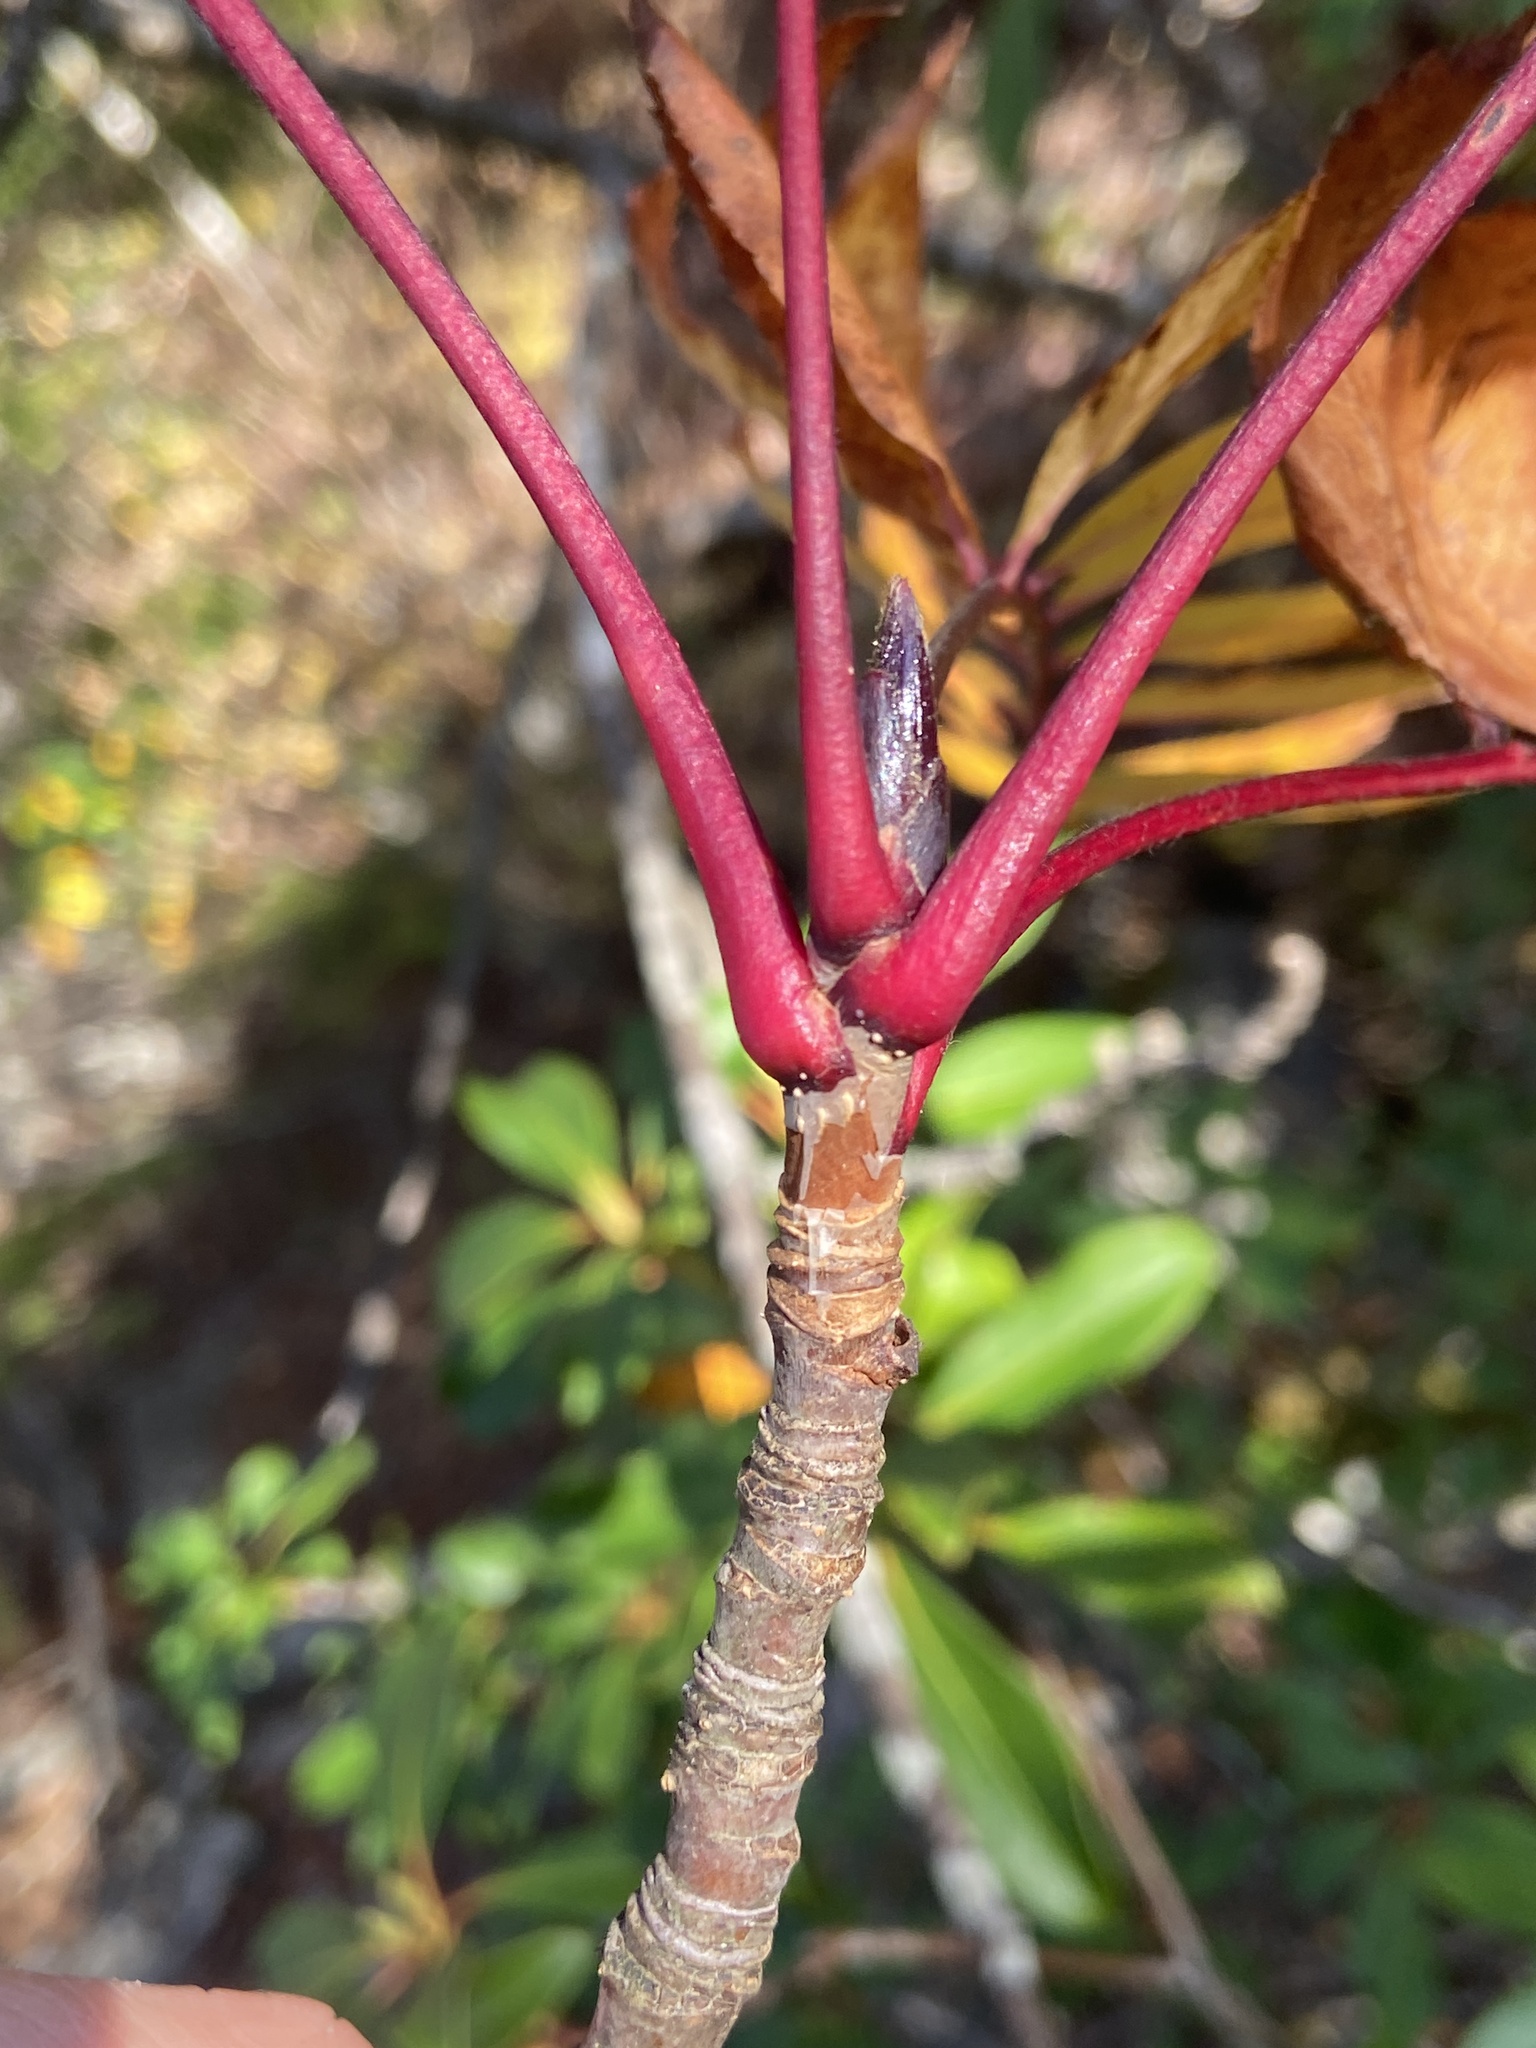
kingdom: Plantae
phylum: Tracheophyta
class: Magnoliopsida
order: Rosales
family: Rosaceae
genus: Sorbus
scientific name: Sorbus americana
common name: American mountain-ash
